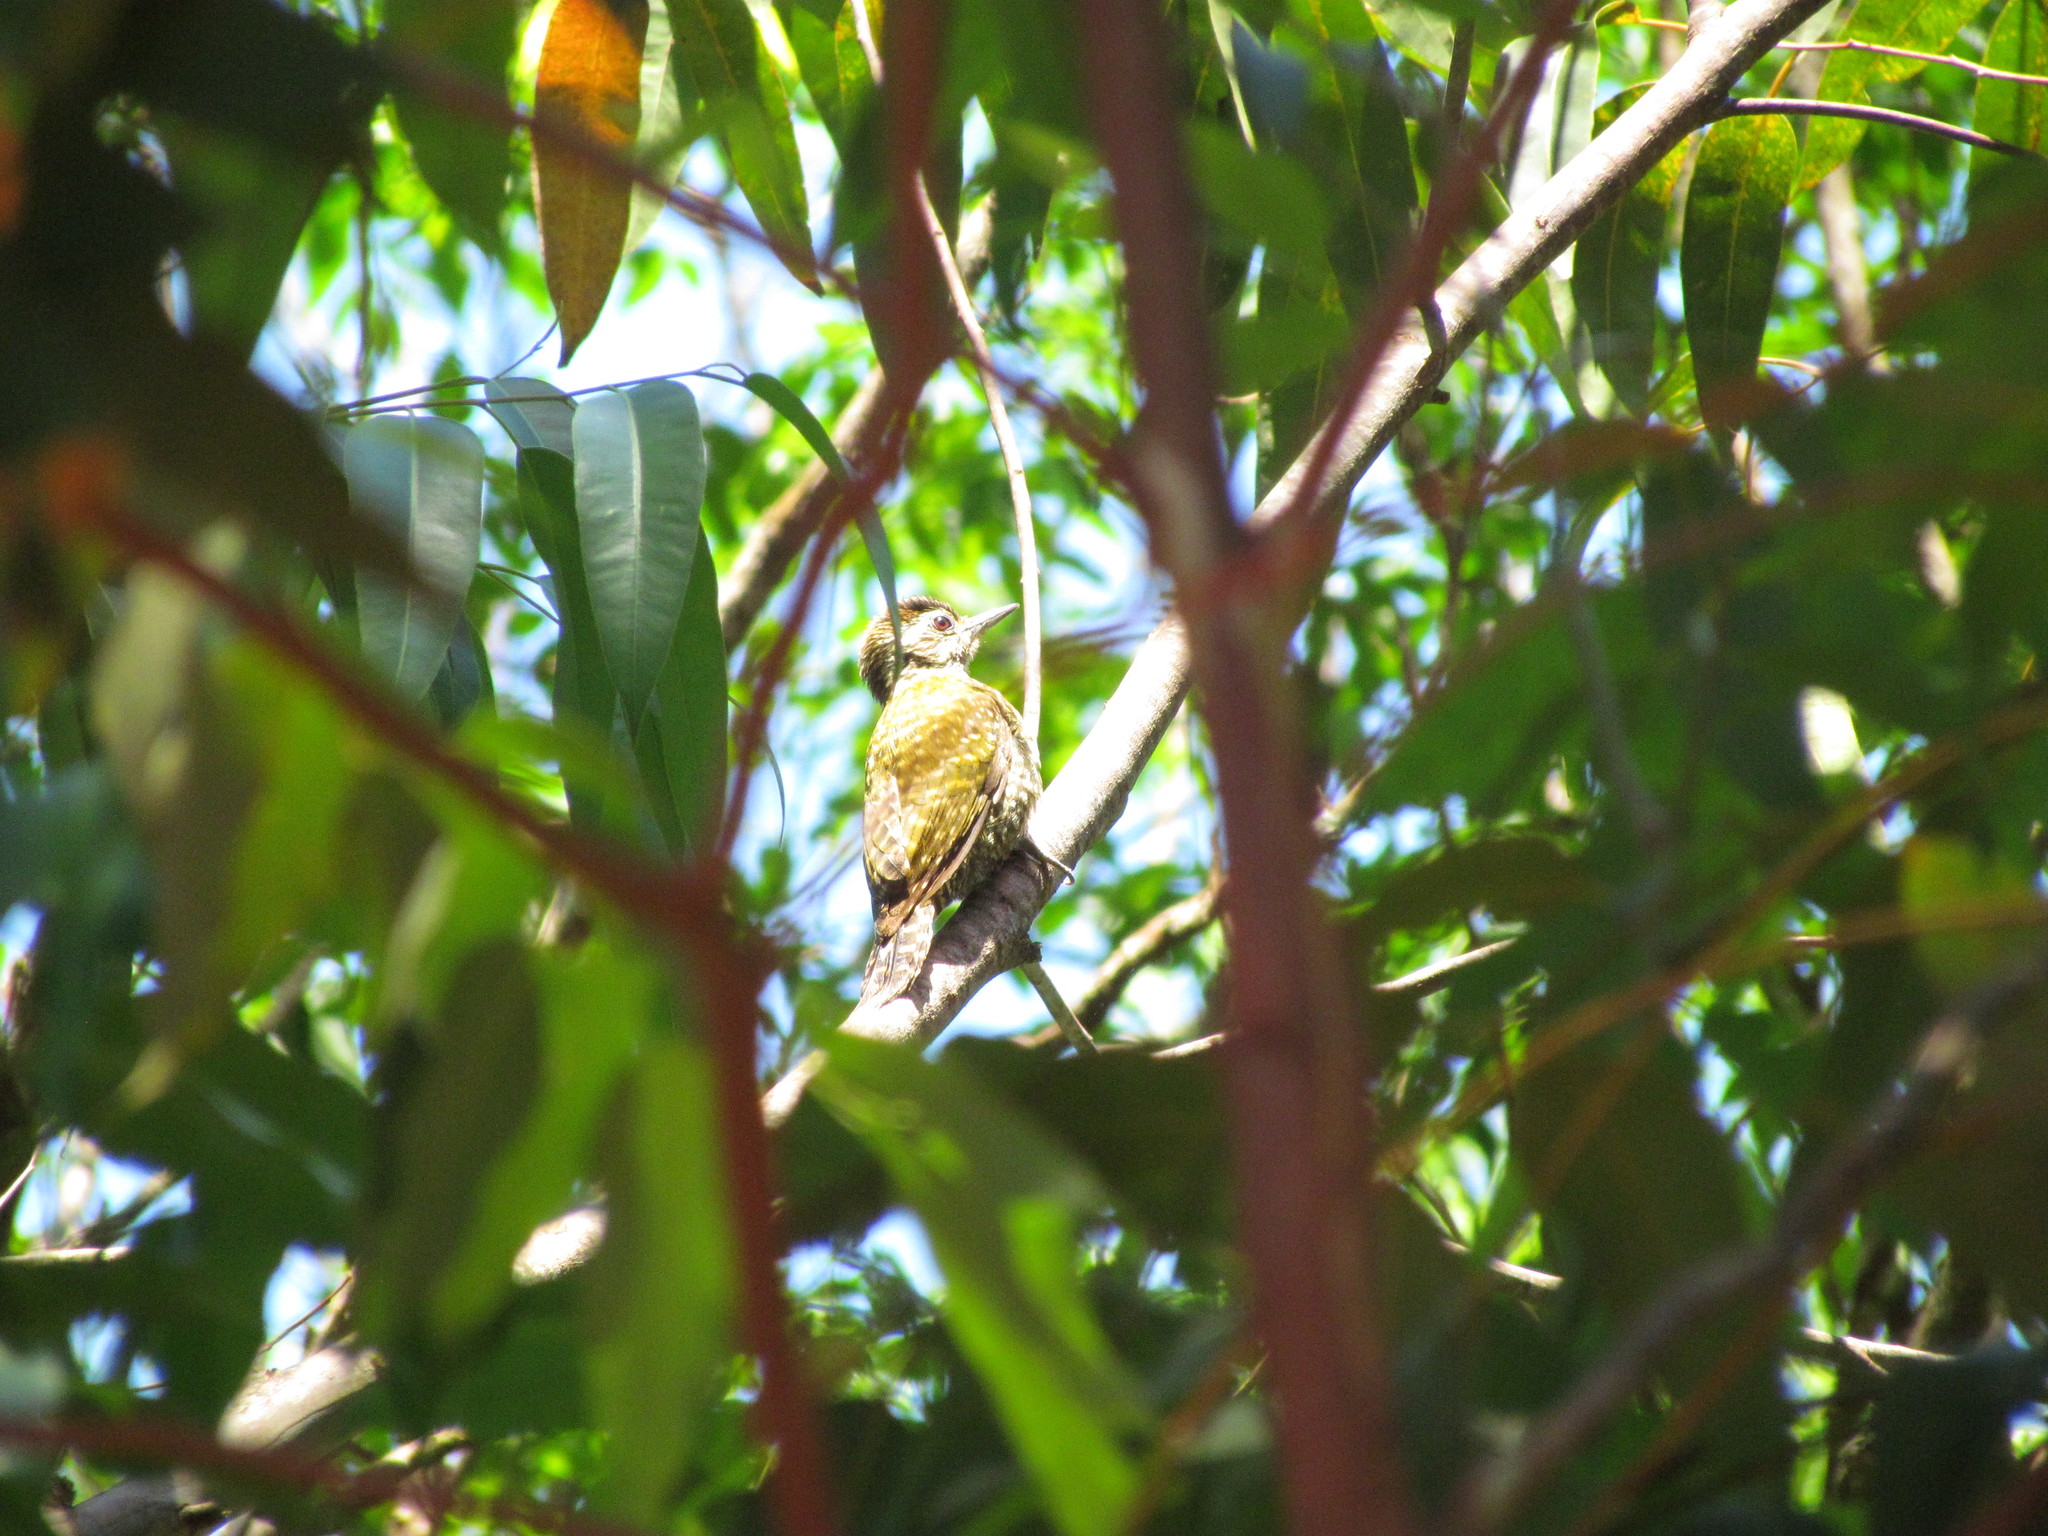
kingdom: Animalia
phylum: Chordata
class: Aves
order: Piciformes
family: Picidae
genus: Veniliornis
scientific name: Veniliornis spilogaster
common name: White-spotted woodpecker
